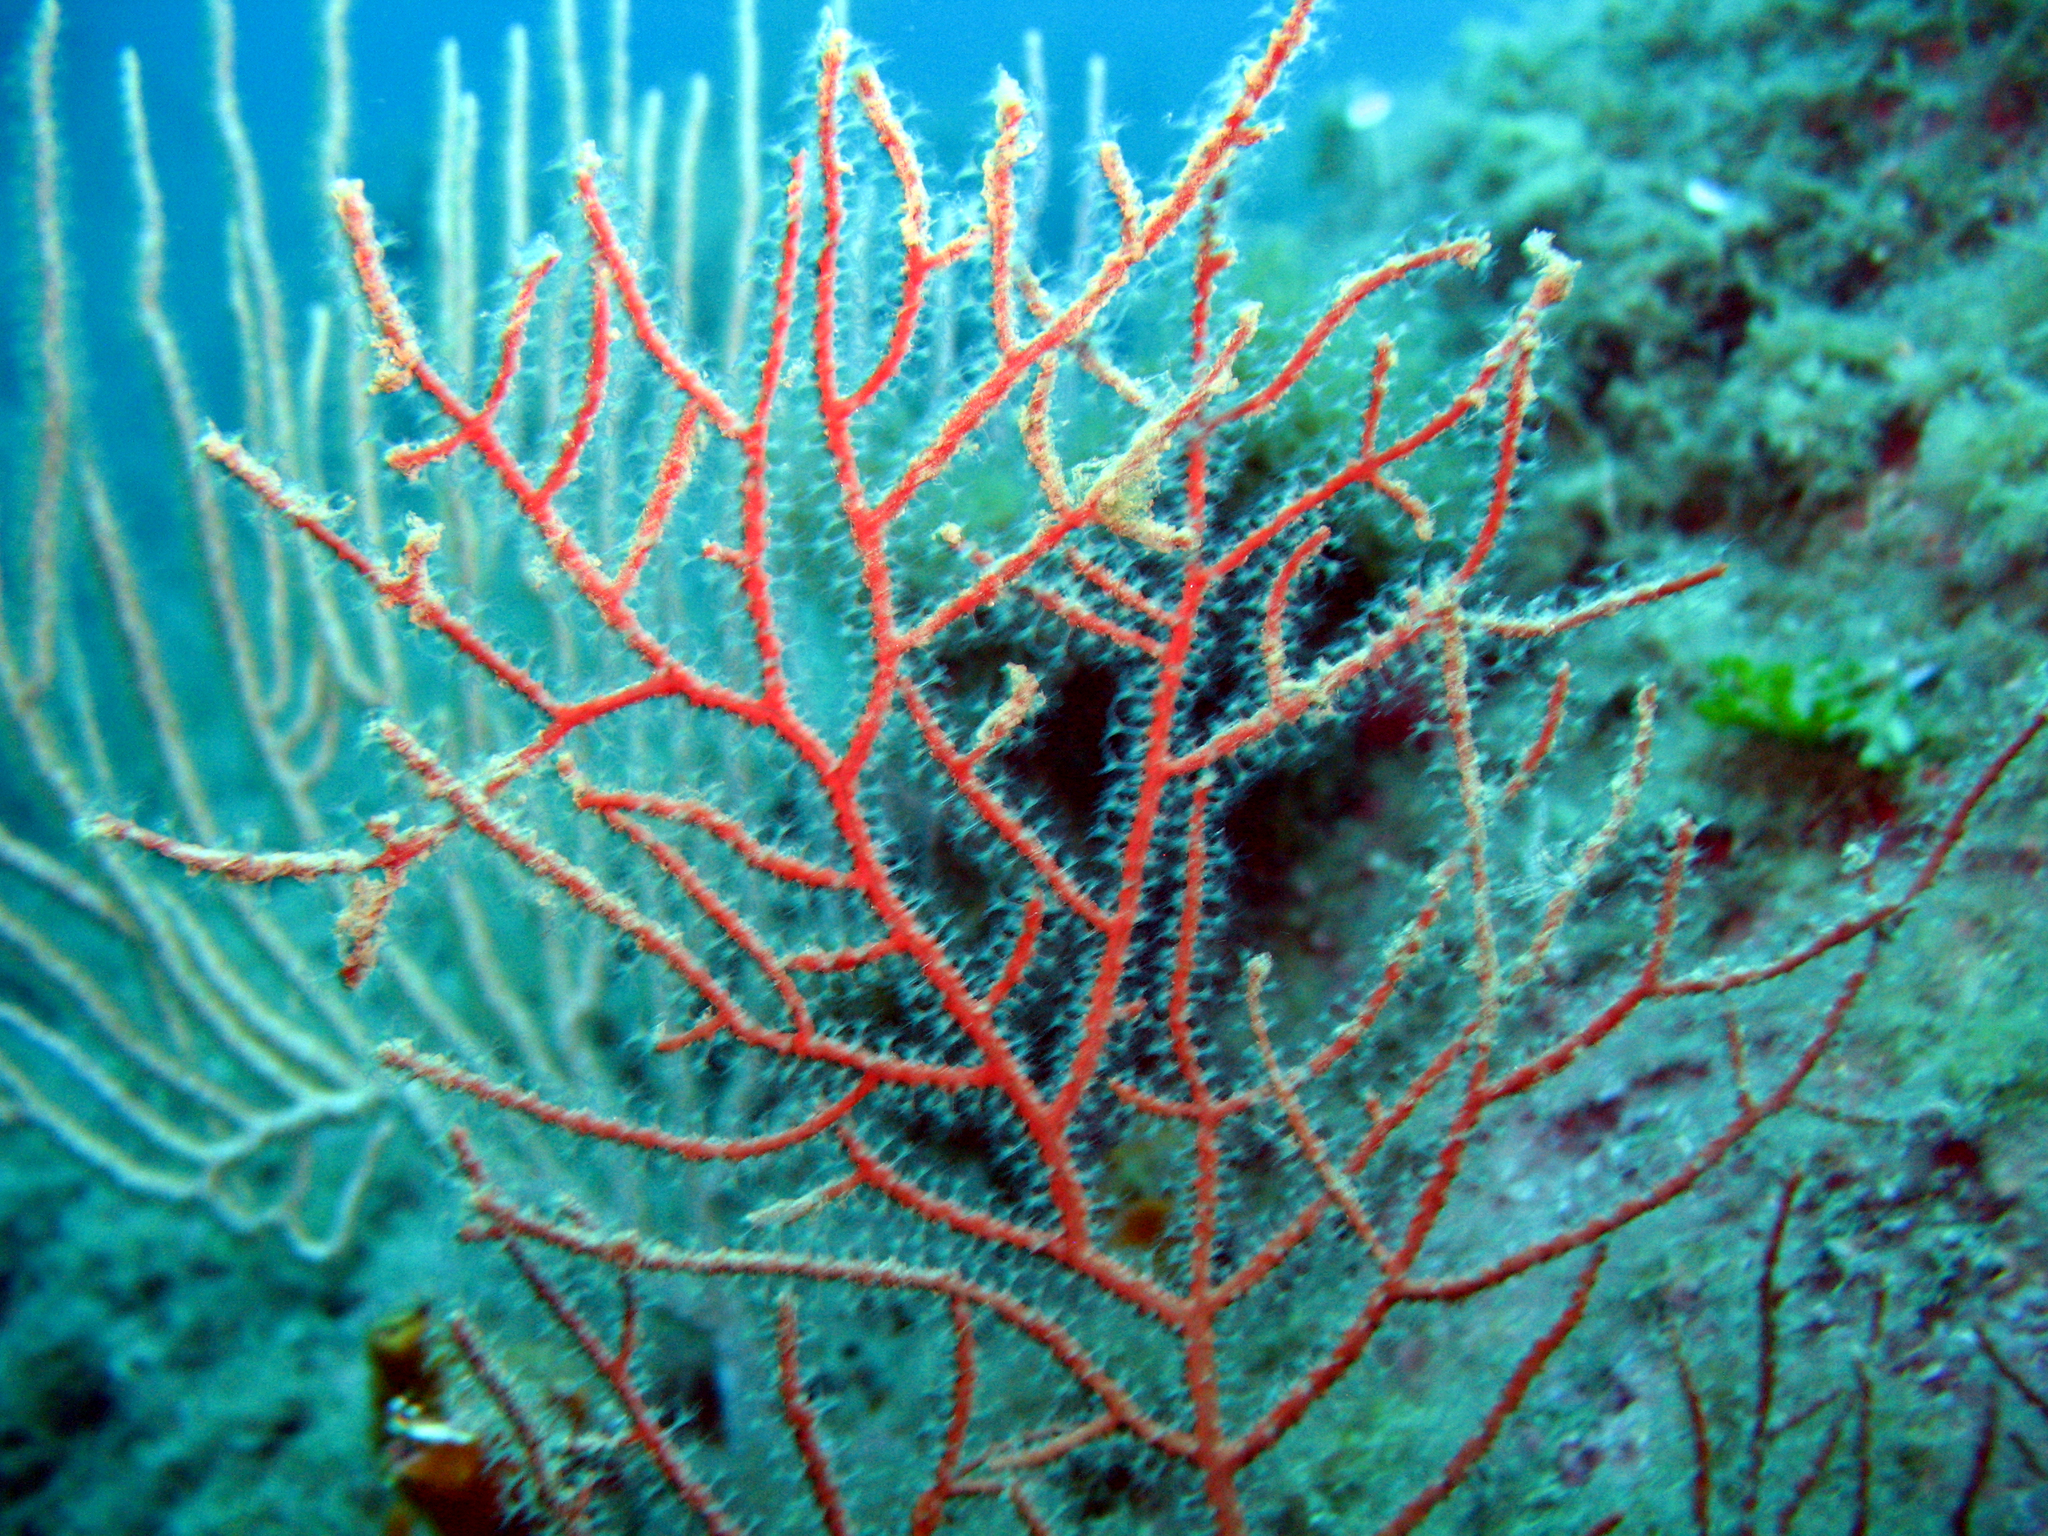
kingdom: Animalia
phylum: Cnidaria
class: Anthozoa
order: Malacalcyonacea
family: Gorgoniidae
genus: Leptogorgia
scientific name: Leptogorgia sarmentosa
